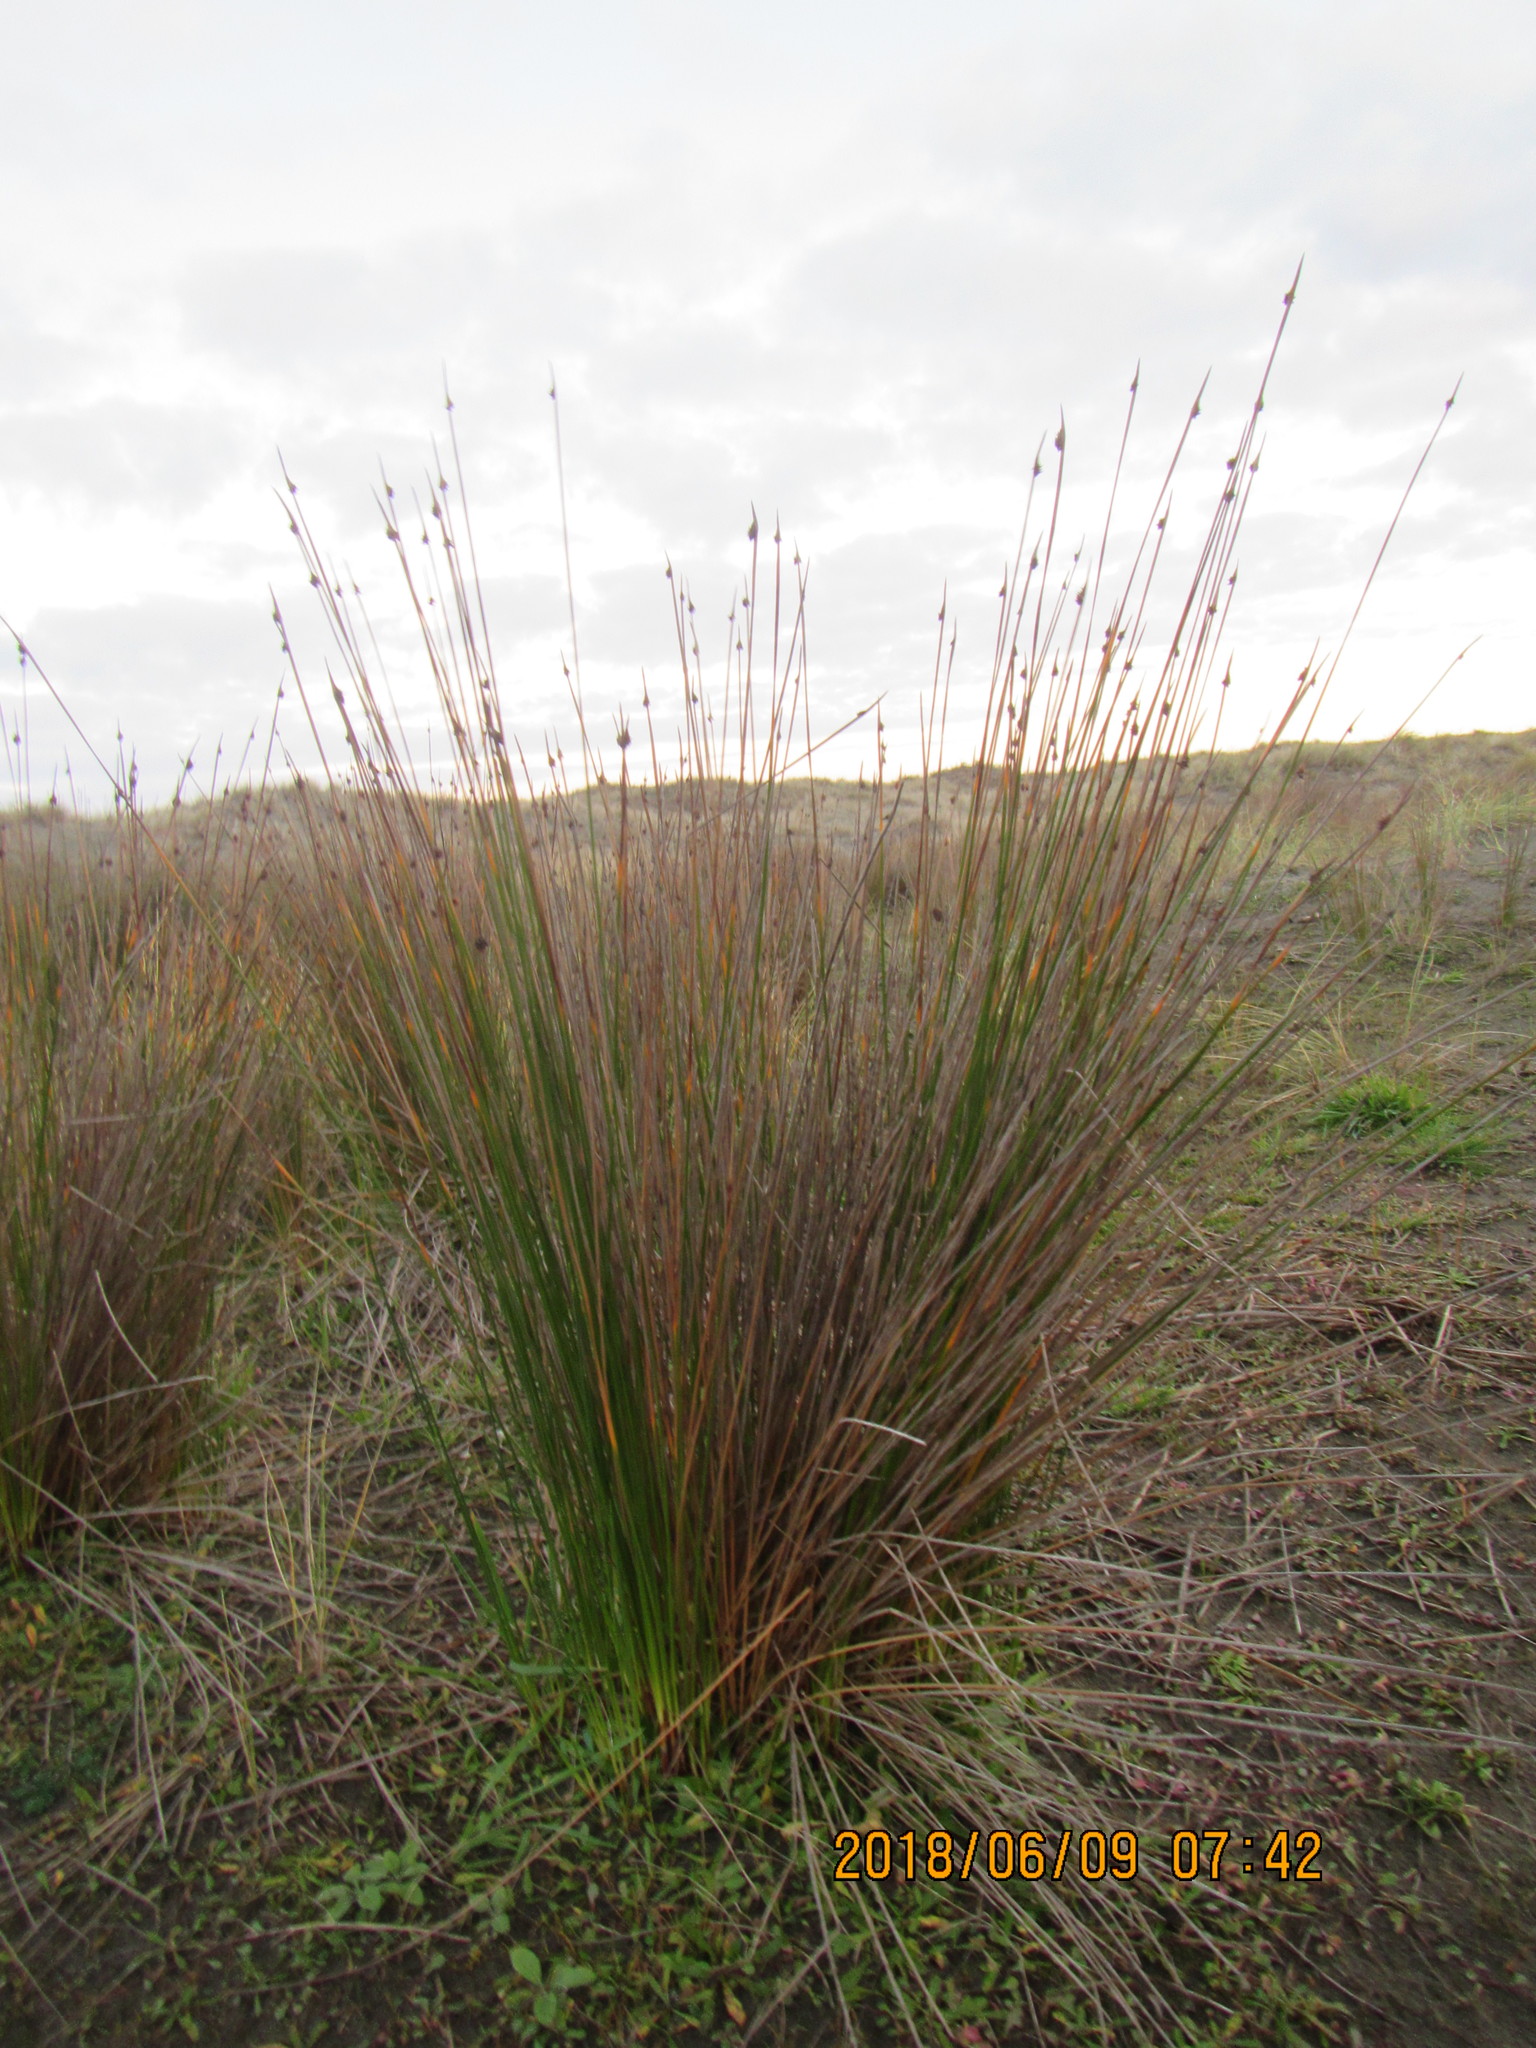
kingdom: Plantae
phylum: Tracheophyta
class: Liliopsida
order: Poales
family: Cyperaceae
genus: Ficinia
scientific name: Ficinia nodosa
